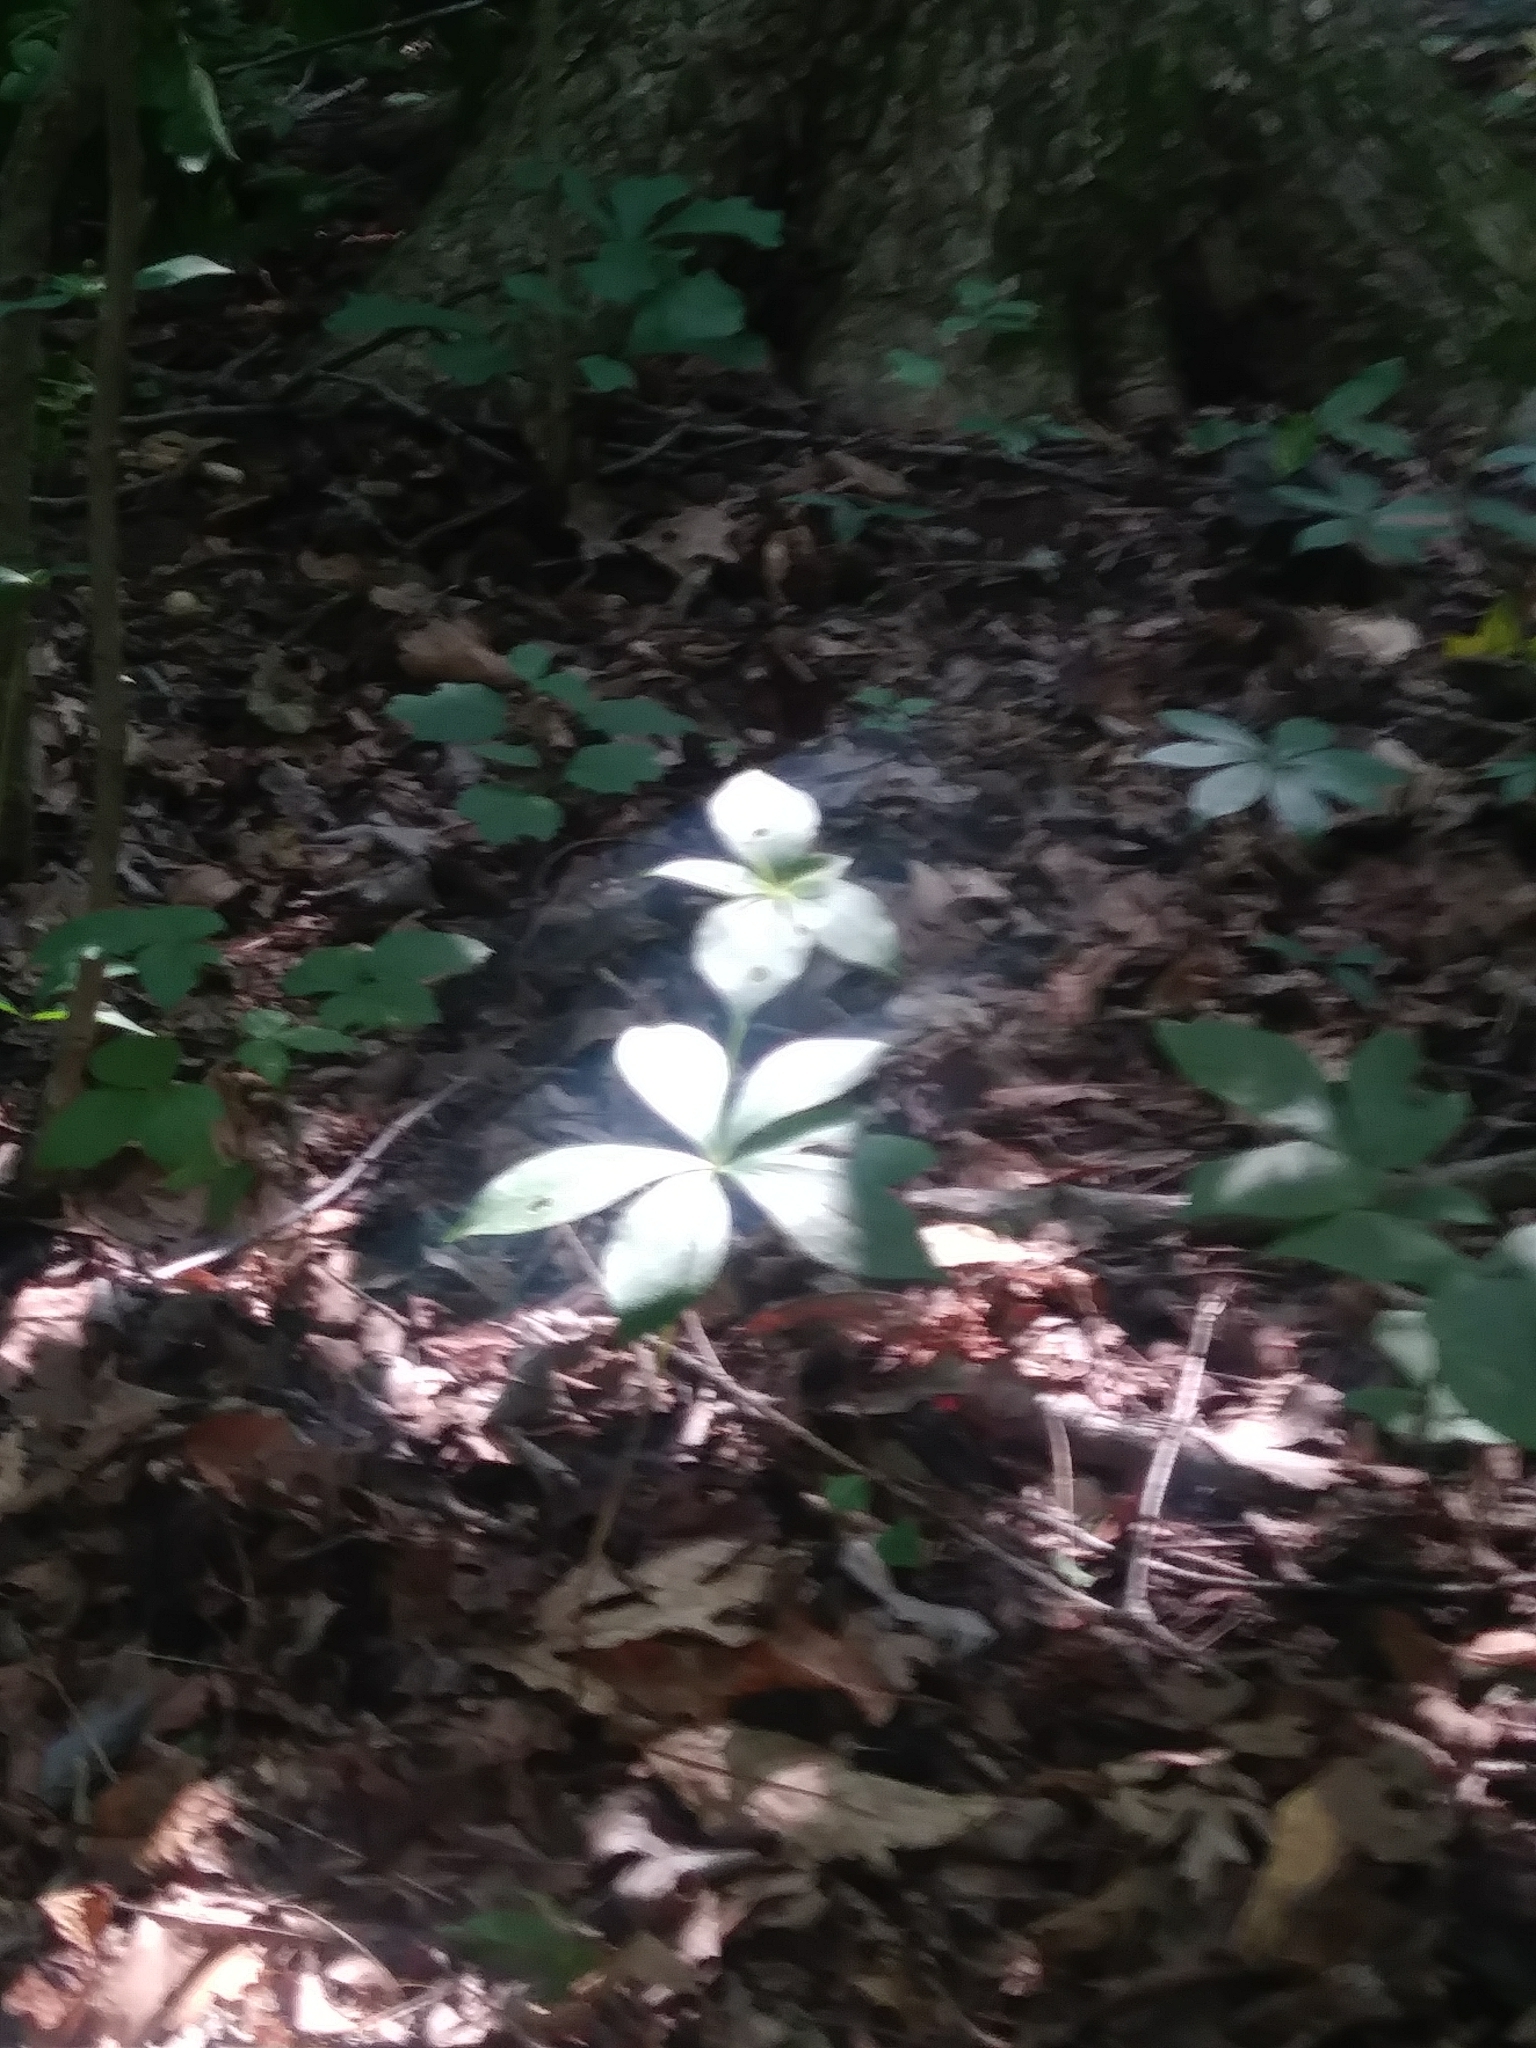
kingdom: Plantae
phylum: Tracheophyta
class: Liliopsida
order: Liliales
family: Liliaceae
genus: Medeola
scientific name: Medeola virginiana
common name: Indian cucumber-root
